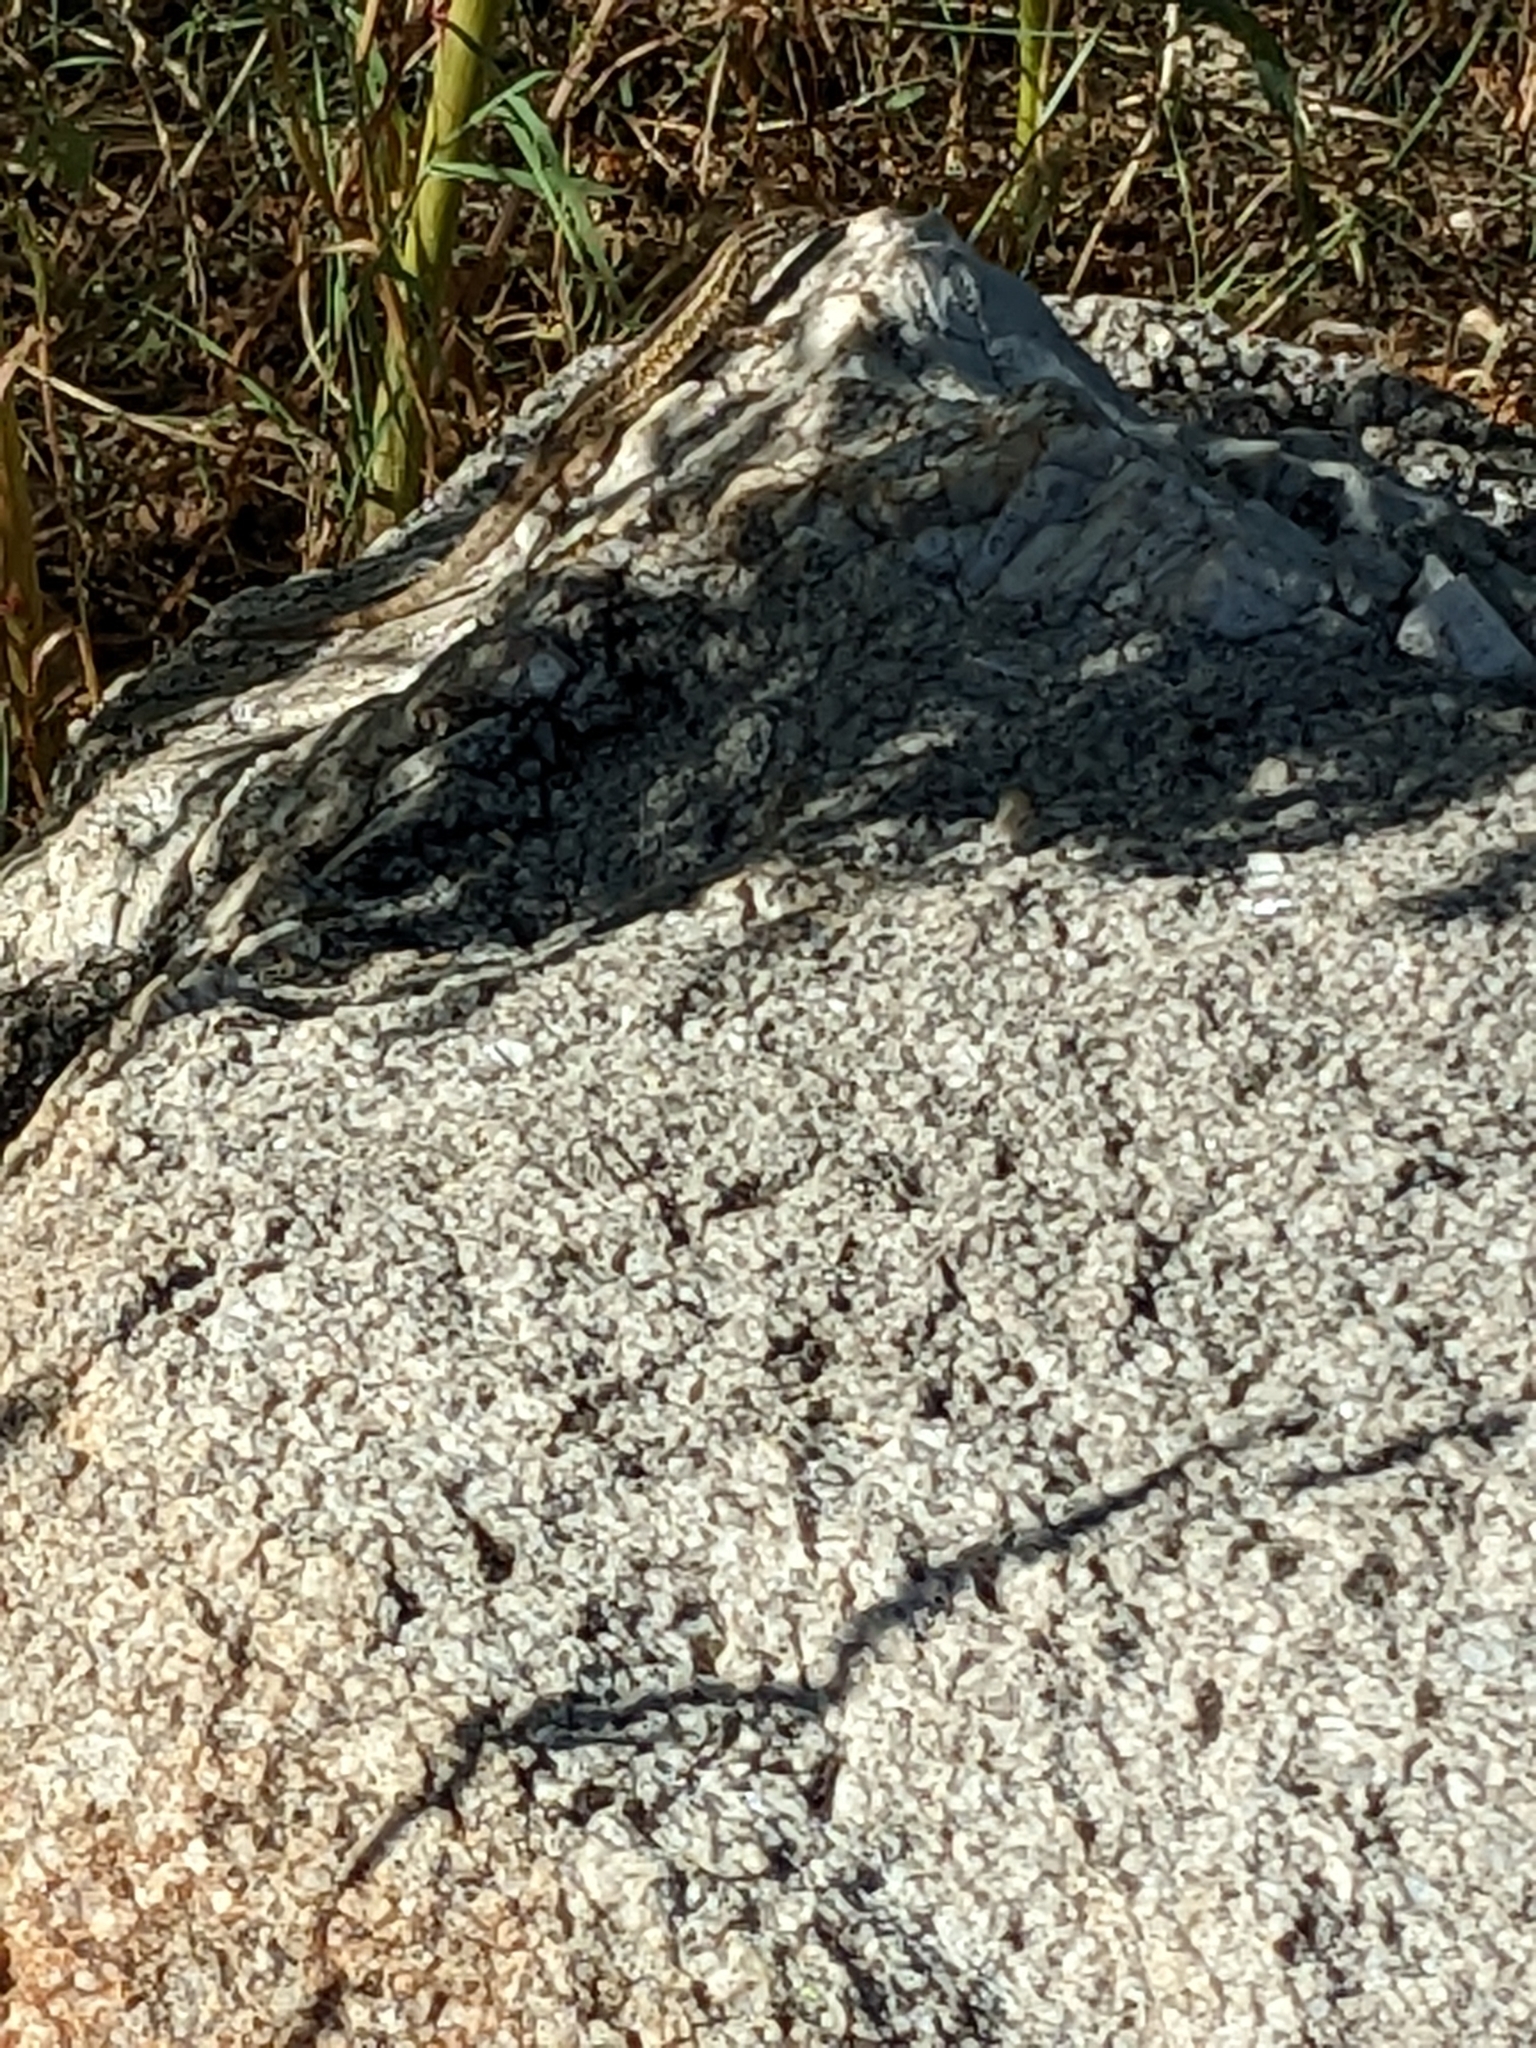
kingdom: Animalia
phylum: Chordata
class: Squamata
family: Phrynosomatidae
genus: Uta
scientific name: Uta stansburiana
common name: Side-blotched lizard
